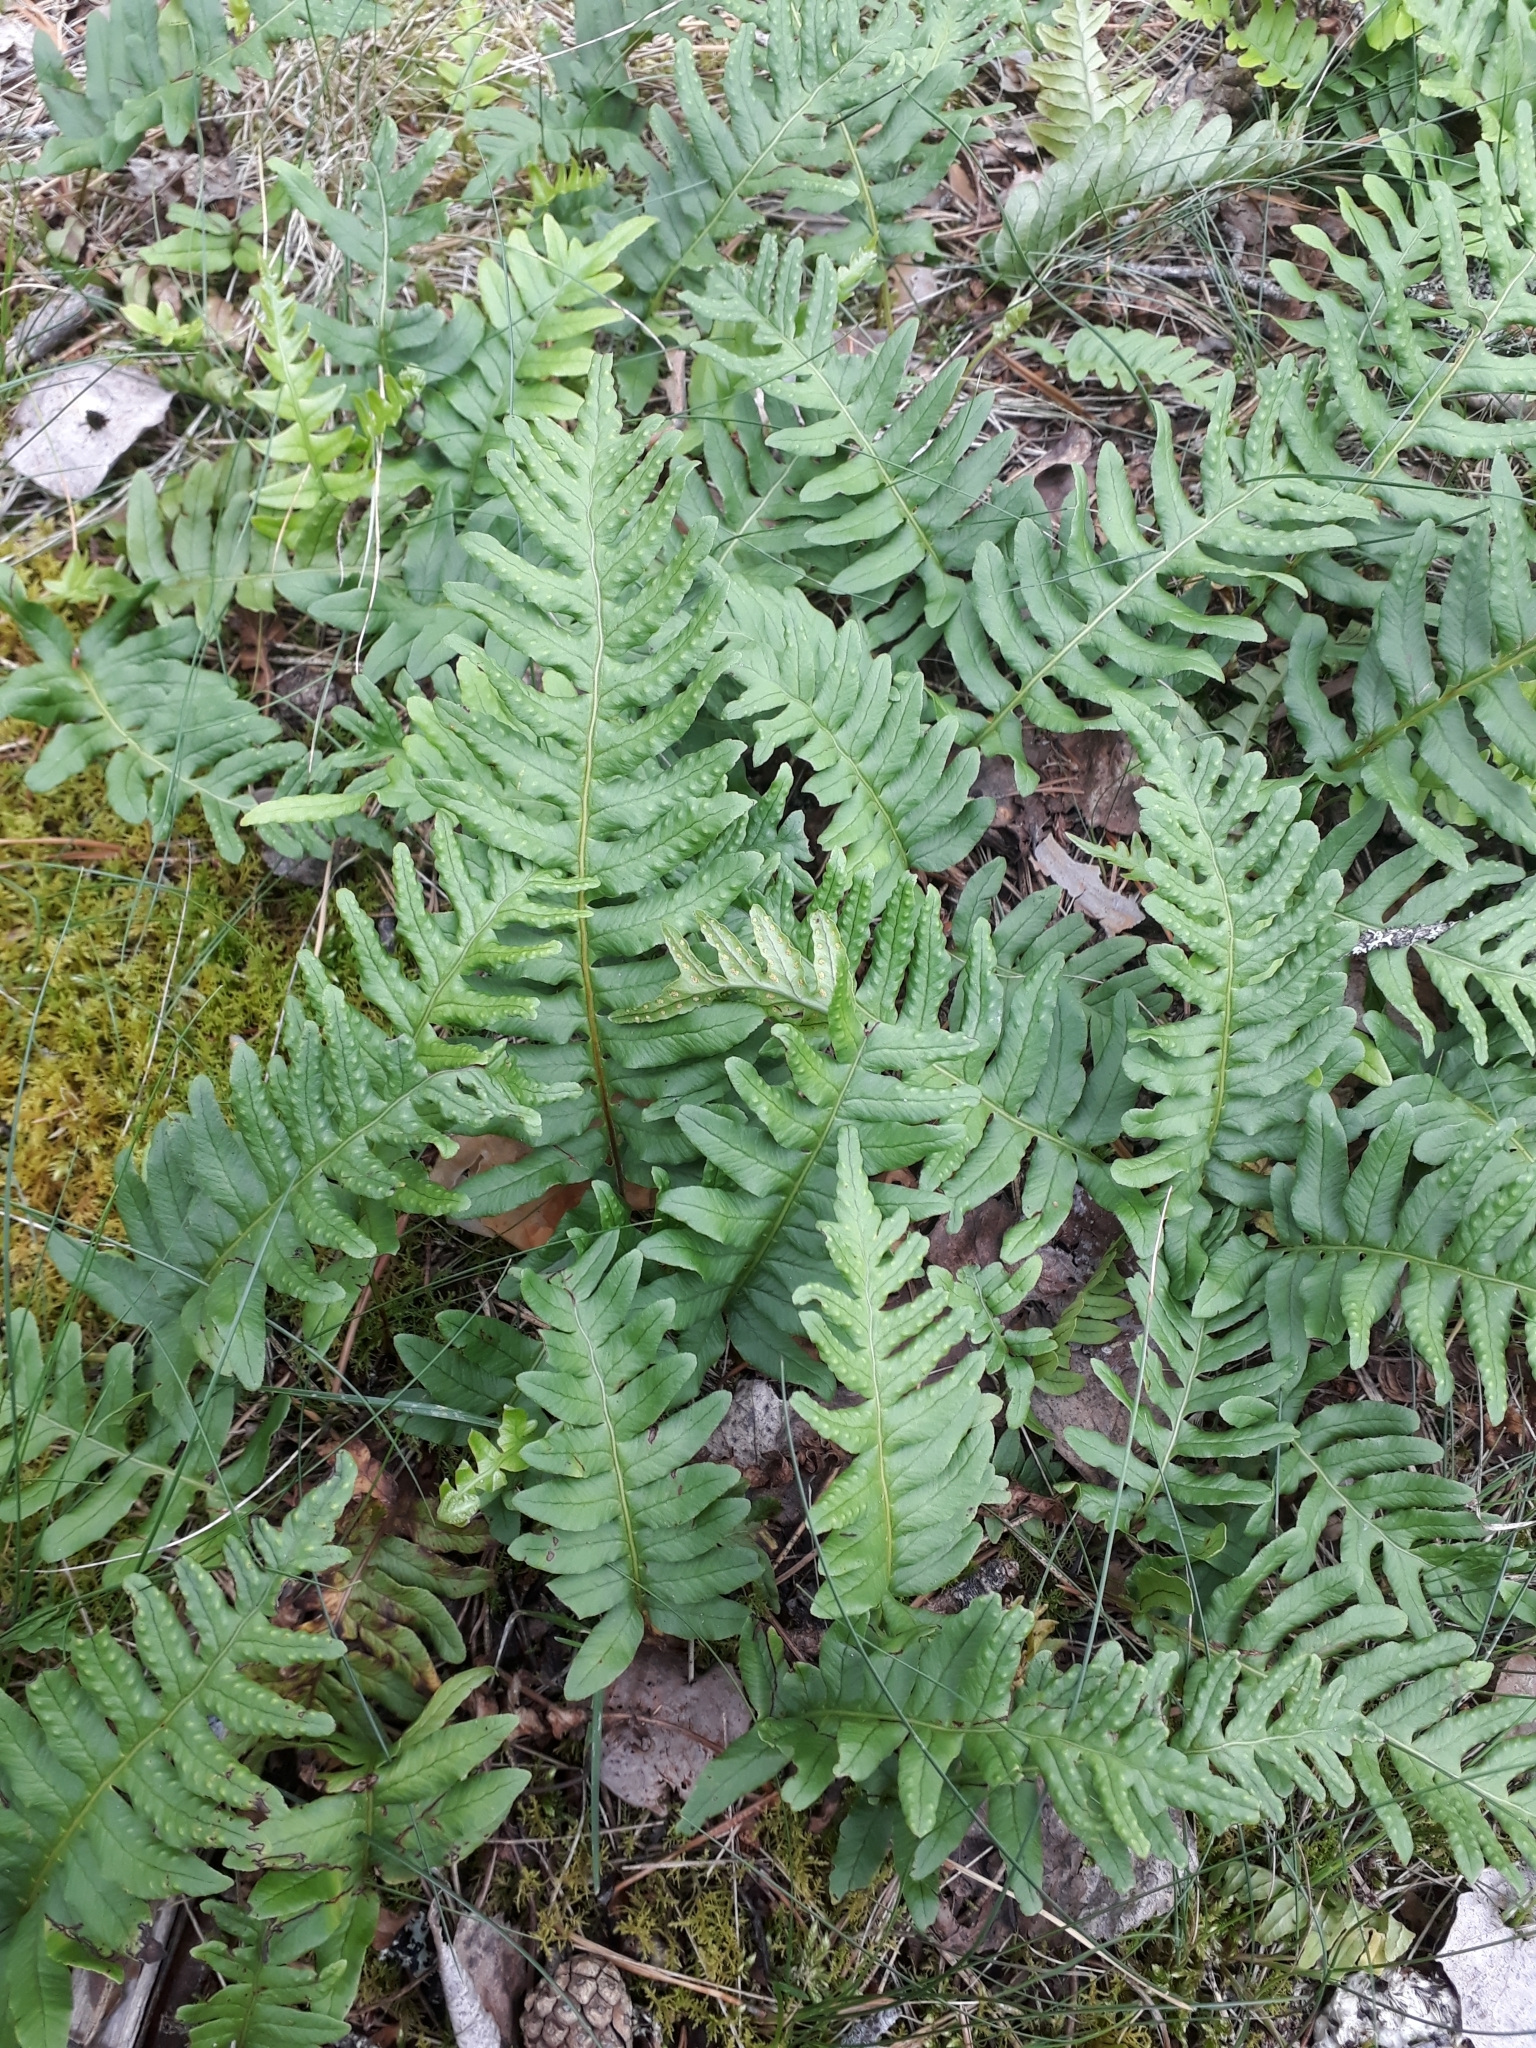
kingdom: Plantae
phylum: Tracheophyta
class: Polypodiopsida
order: Polypodiales
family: Polypodiaceae
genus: Polypodium
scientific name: Polypodium vulgare
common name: Common polypody
